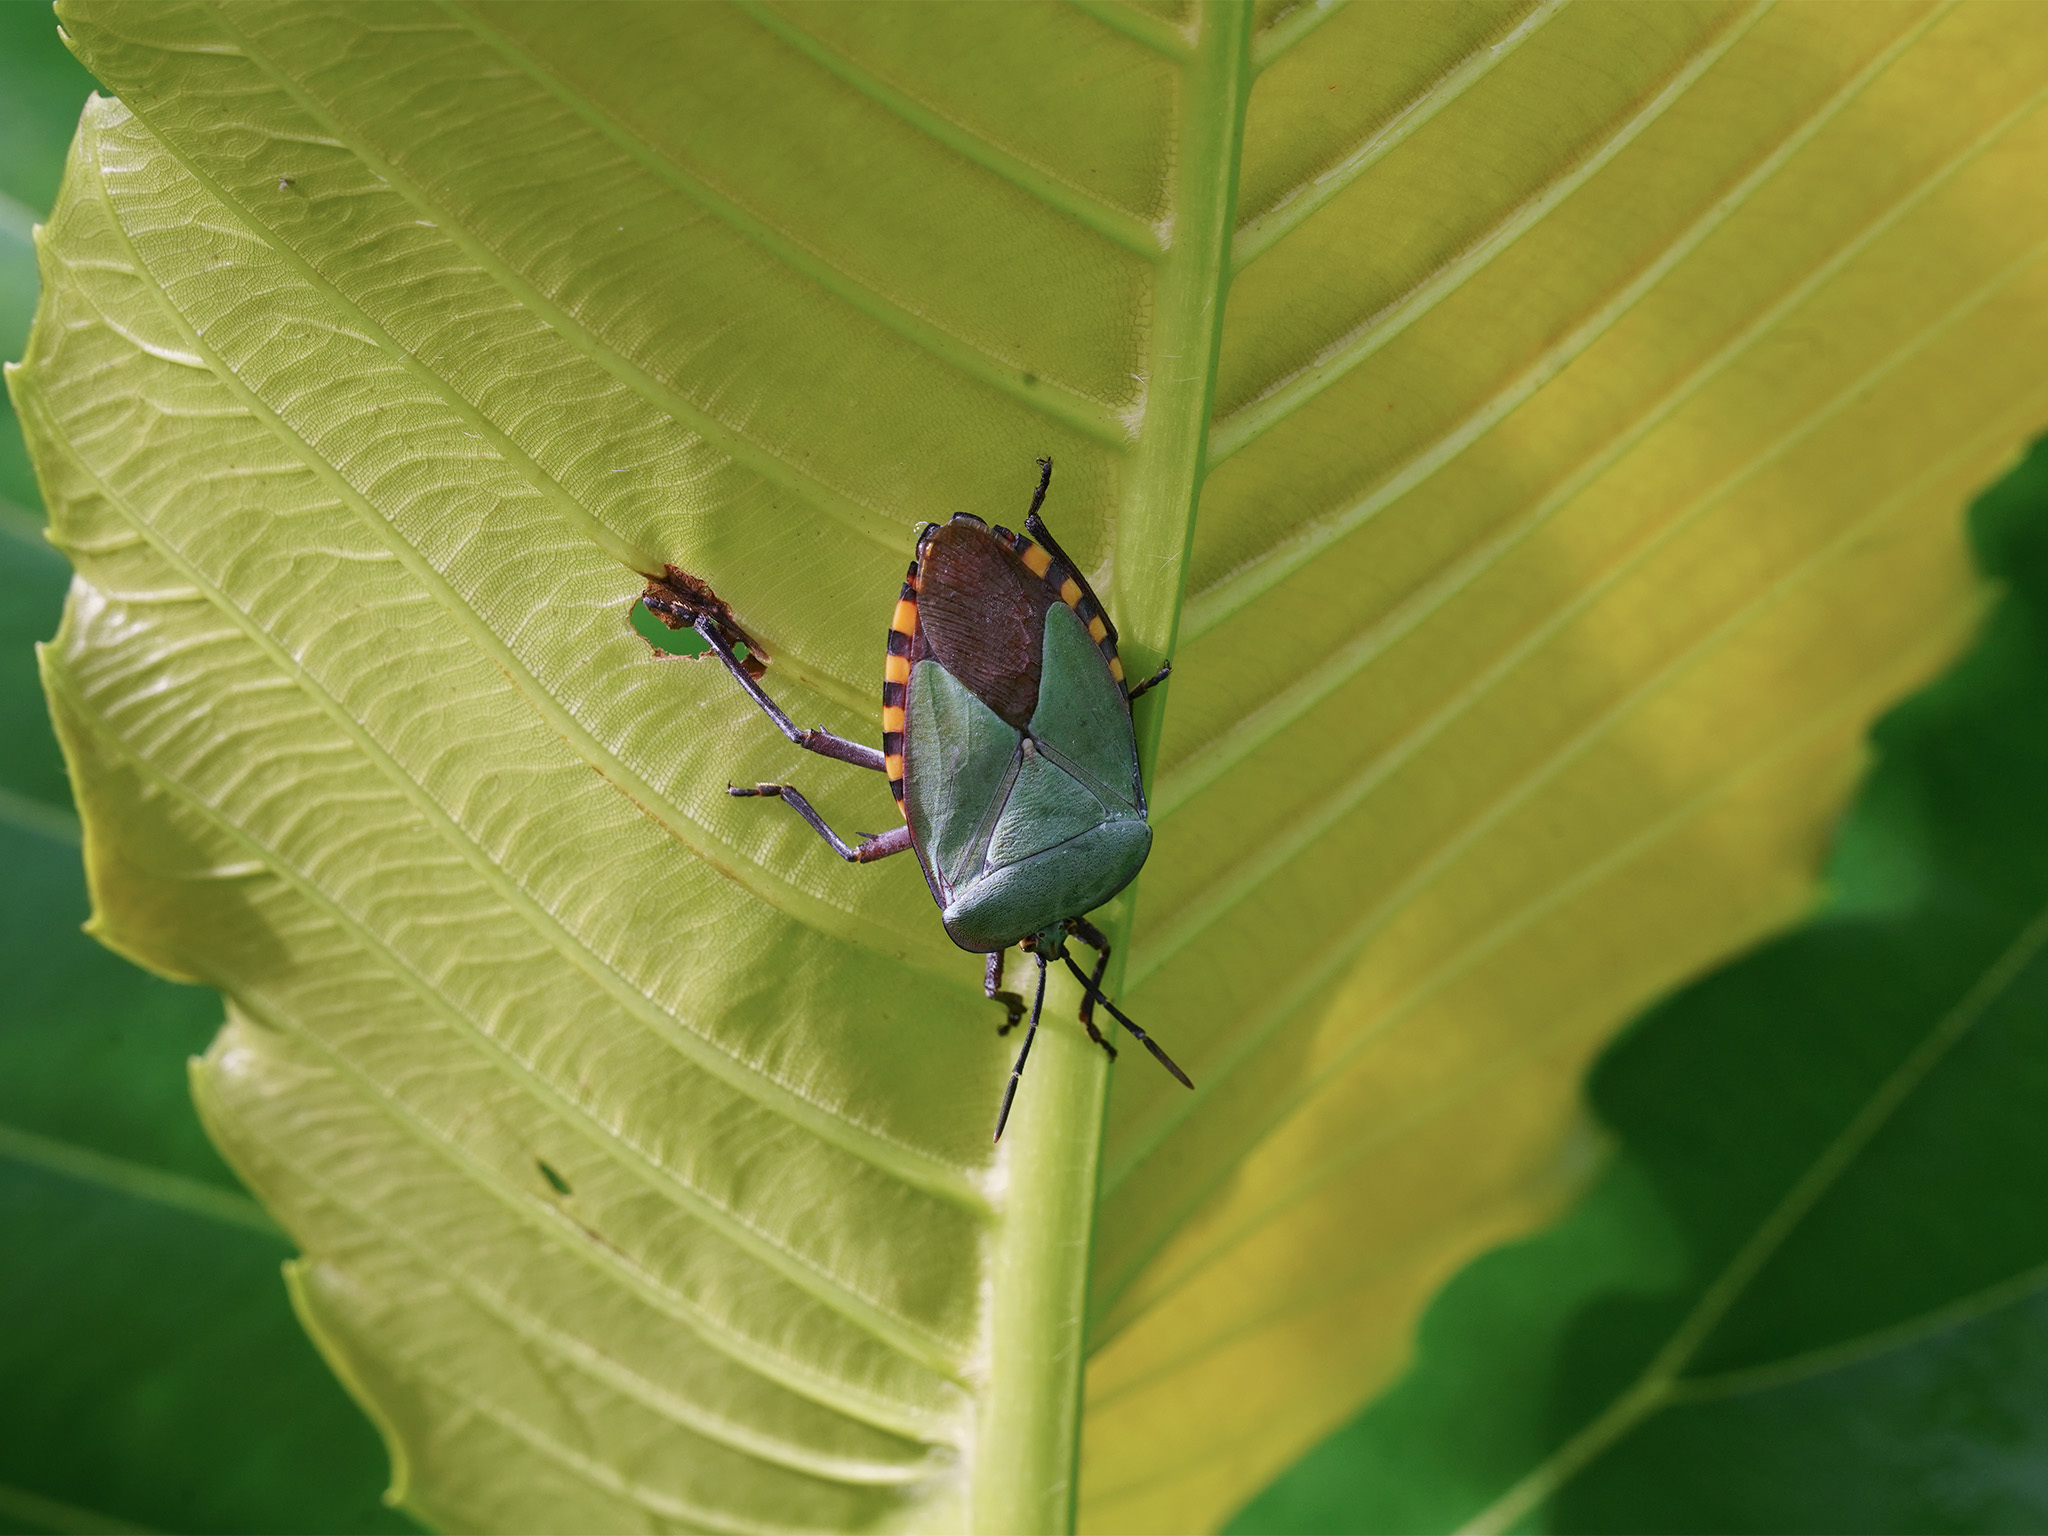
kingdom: Animalia
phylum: Arthropoda
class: Insecta
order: Hemiptera
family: Tessaratomidae
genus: Pycanum
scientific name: Pycanum alternatum
